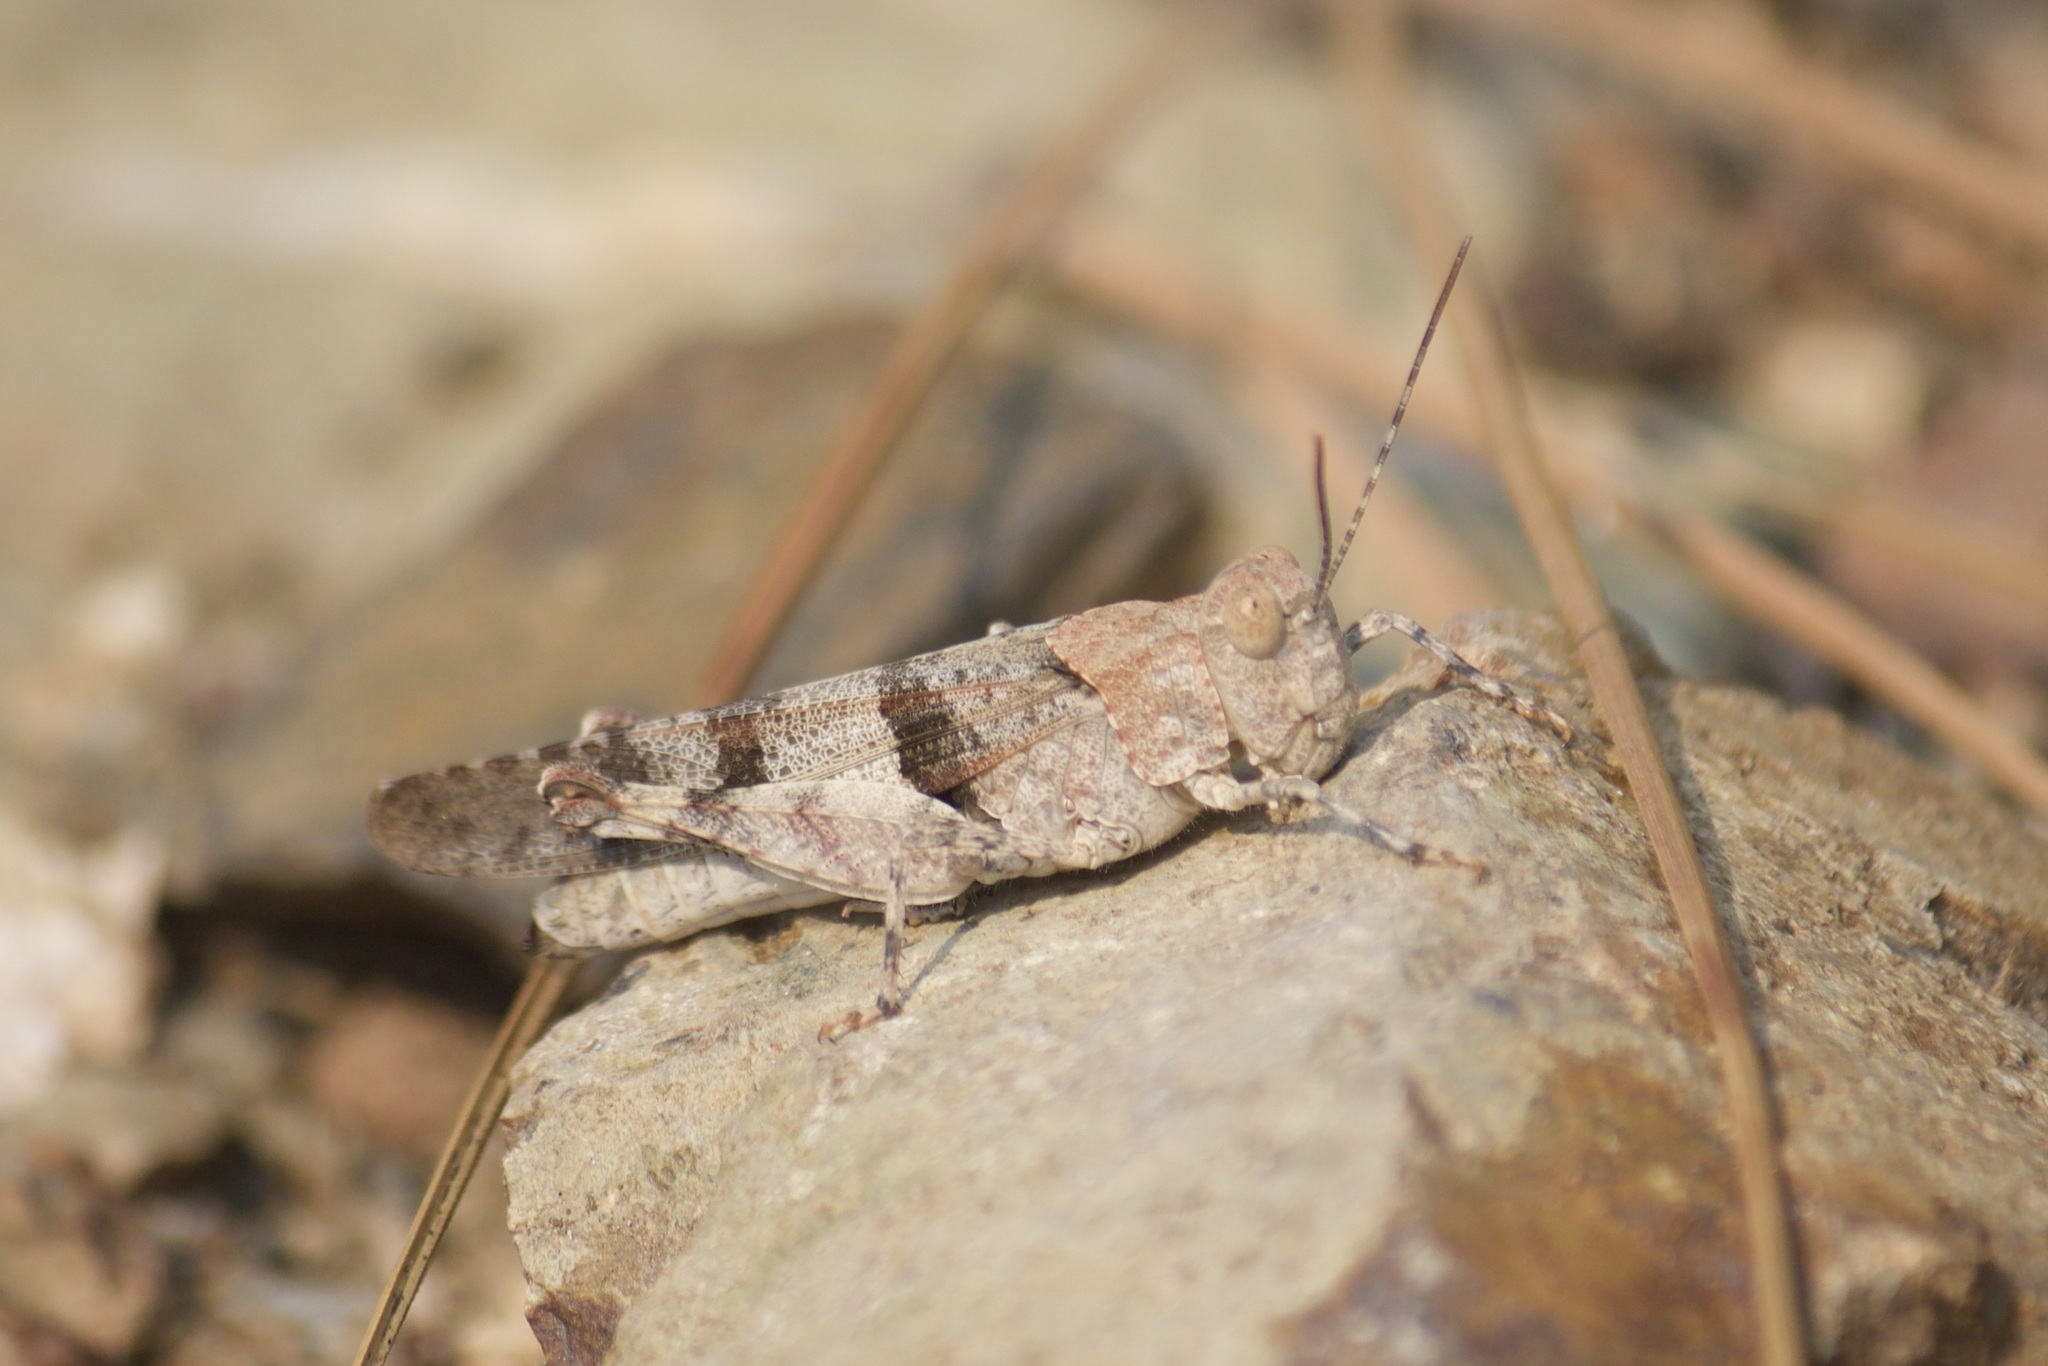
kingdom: Animalia
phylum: Arthropoda
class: Insecta
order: Orthoptera
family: Acrididae
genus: Trimerotropis
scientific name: Trimerotropis fontana
